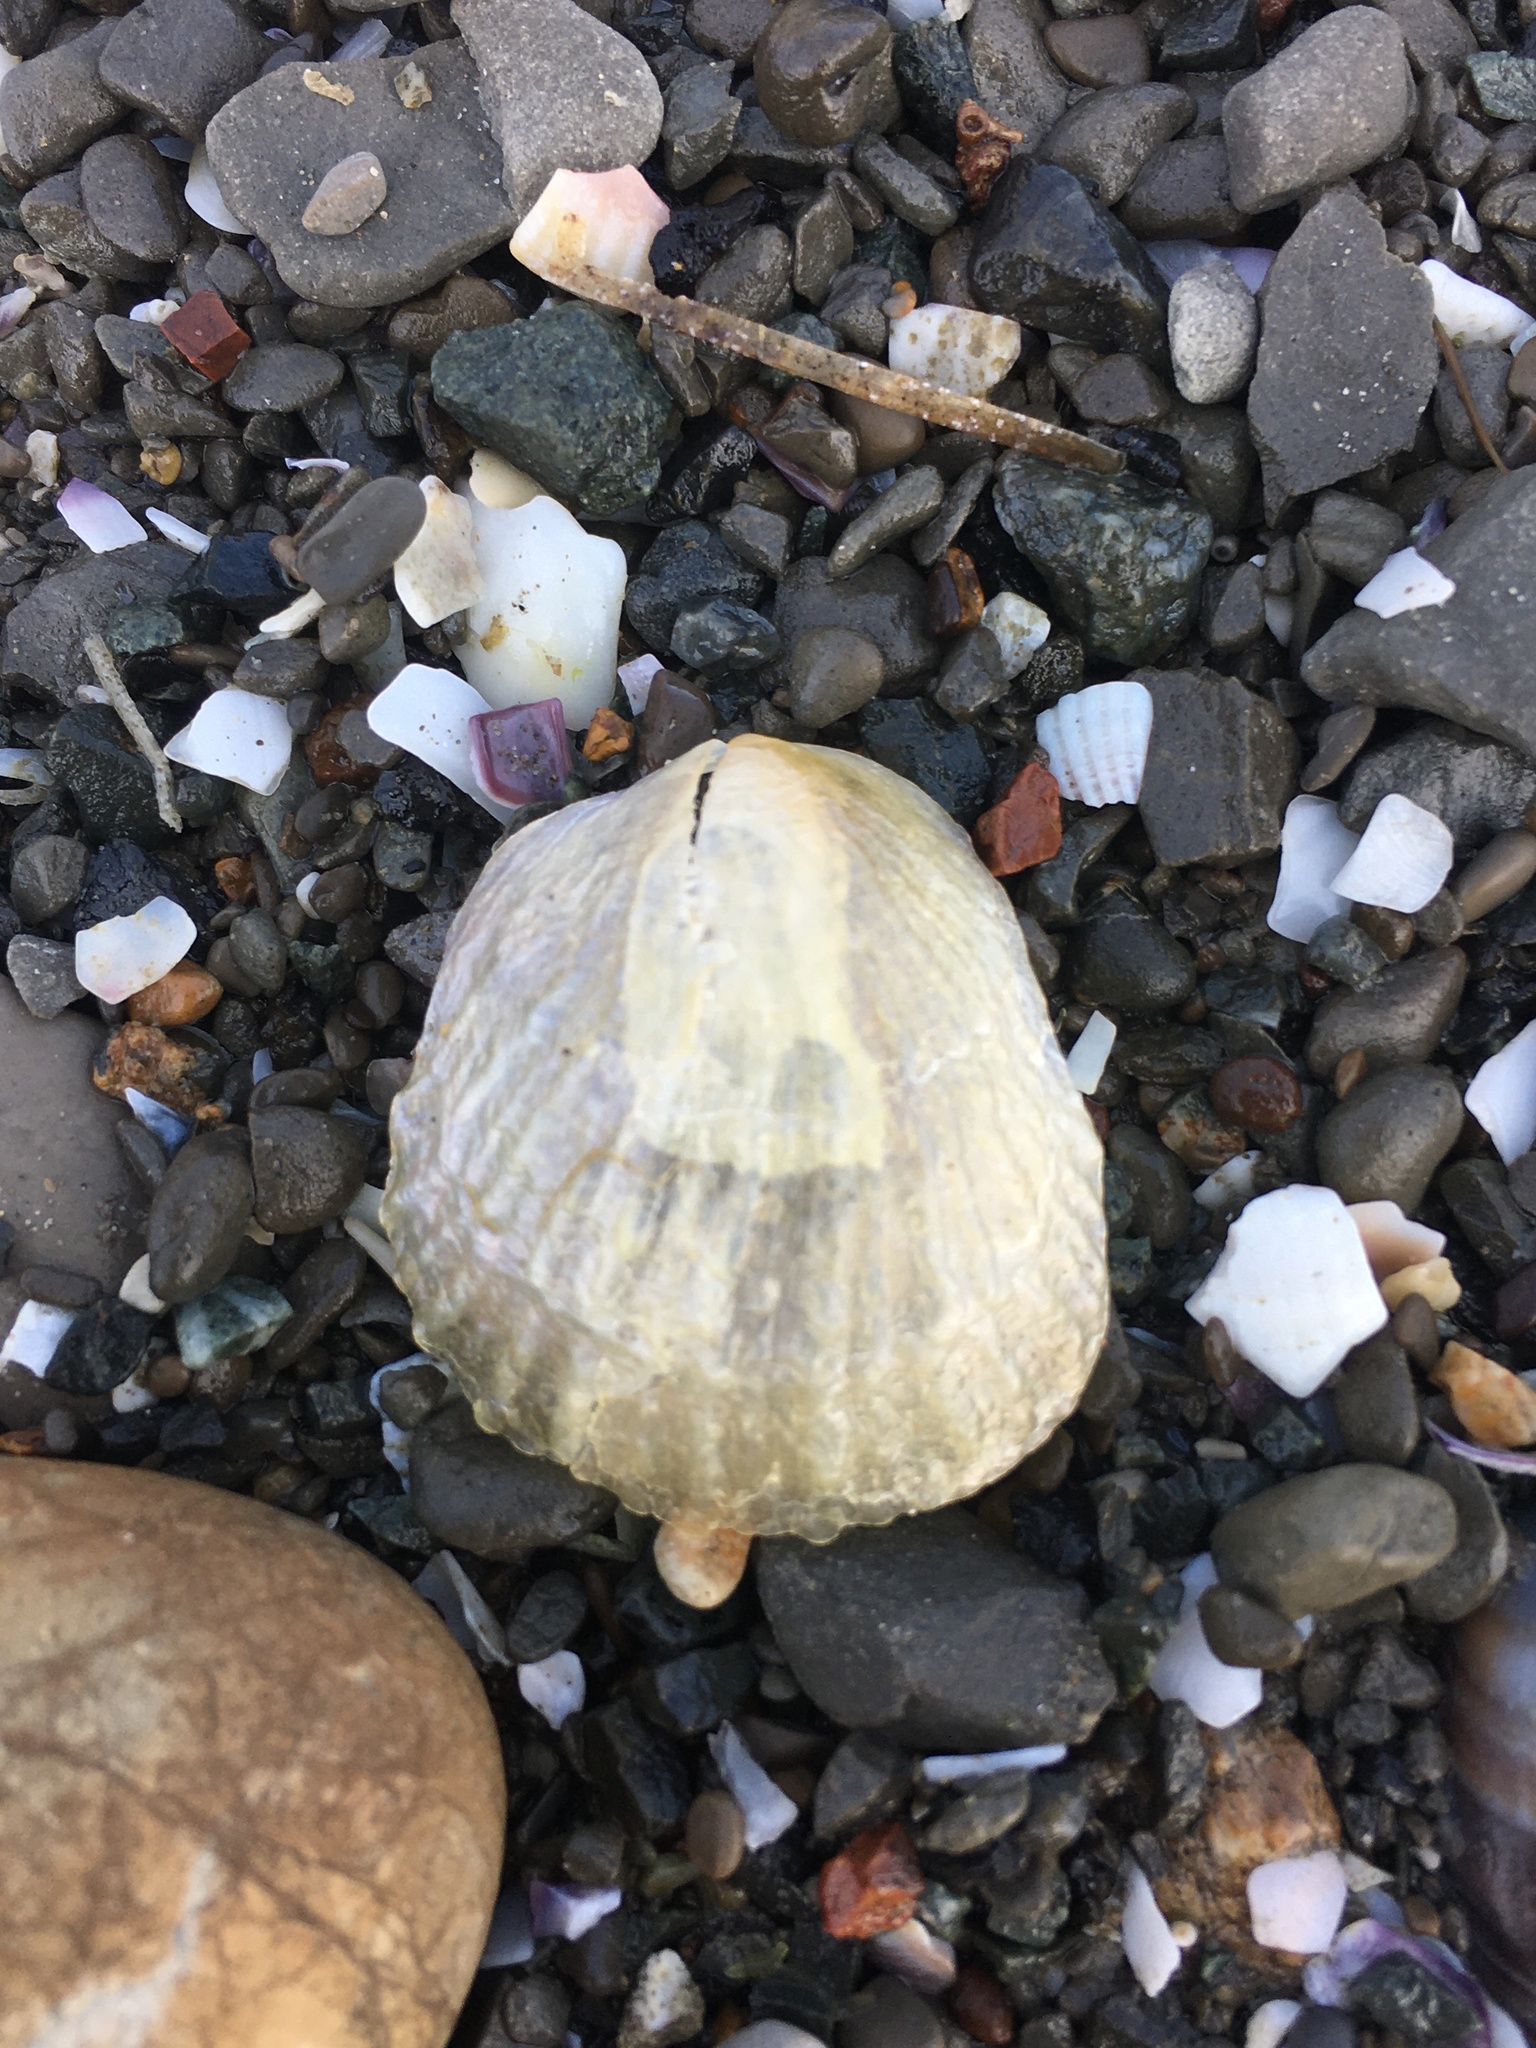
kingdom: Animalia
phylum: Mollusca
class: Bivalvia
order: Pectinida
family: Anomiidae
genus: Anomia
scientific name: Anomia trigonopsis
